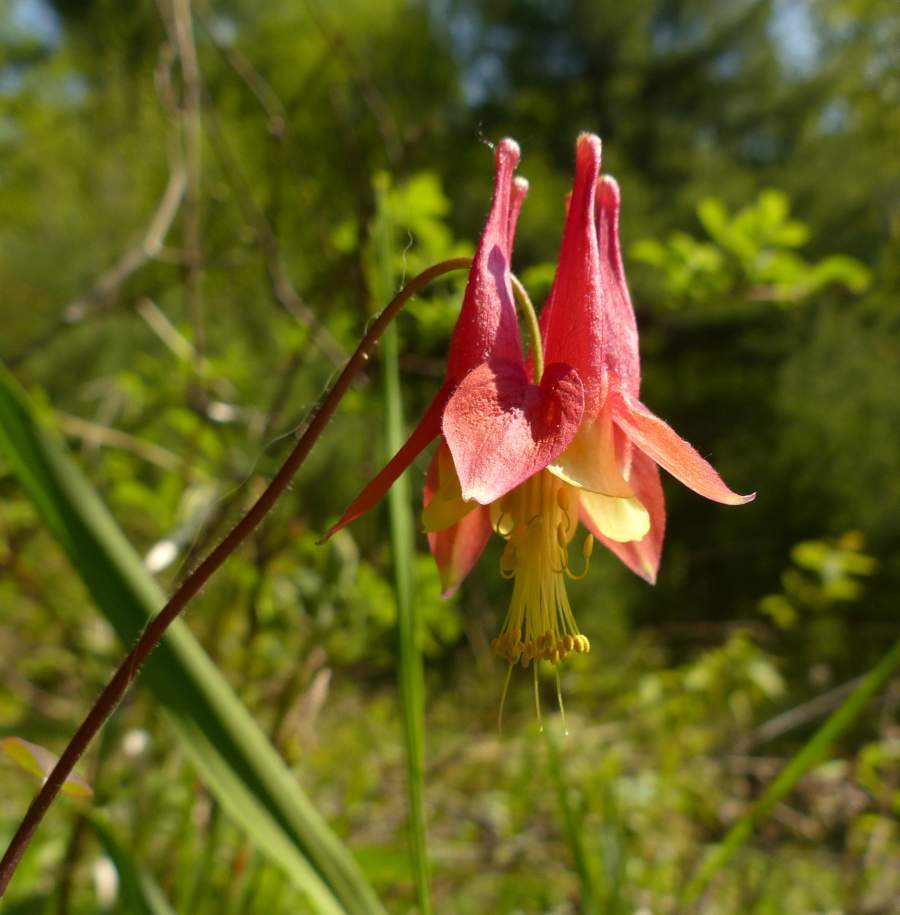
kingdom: Plantae
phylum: Tracheophyta
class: Magnoliopsida
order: Ranunculales
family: Ranunculaceae
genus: Aquilegia
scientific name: Aquilegia canadensis
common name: American columbine
